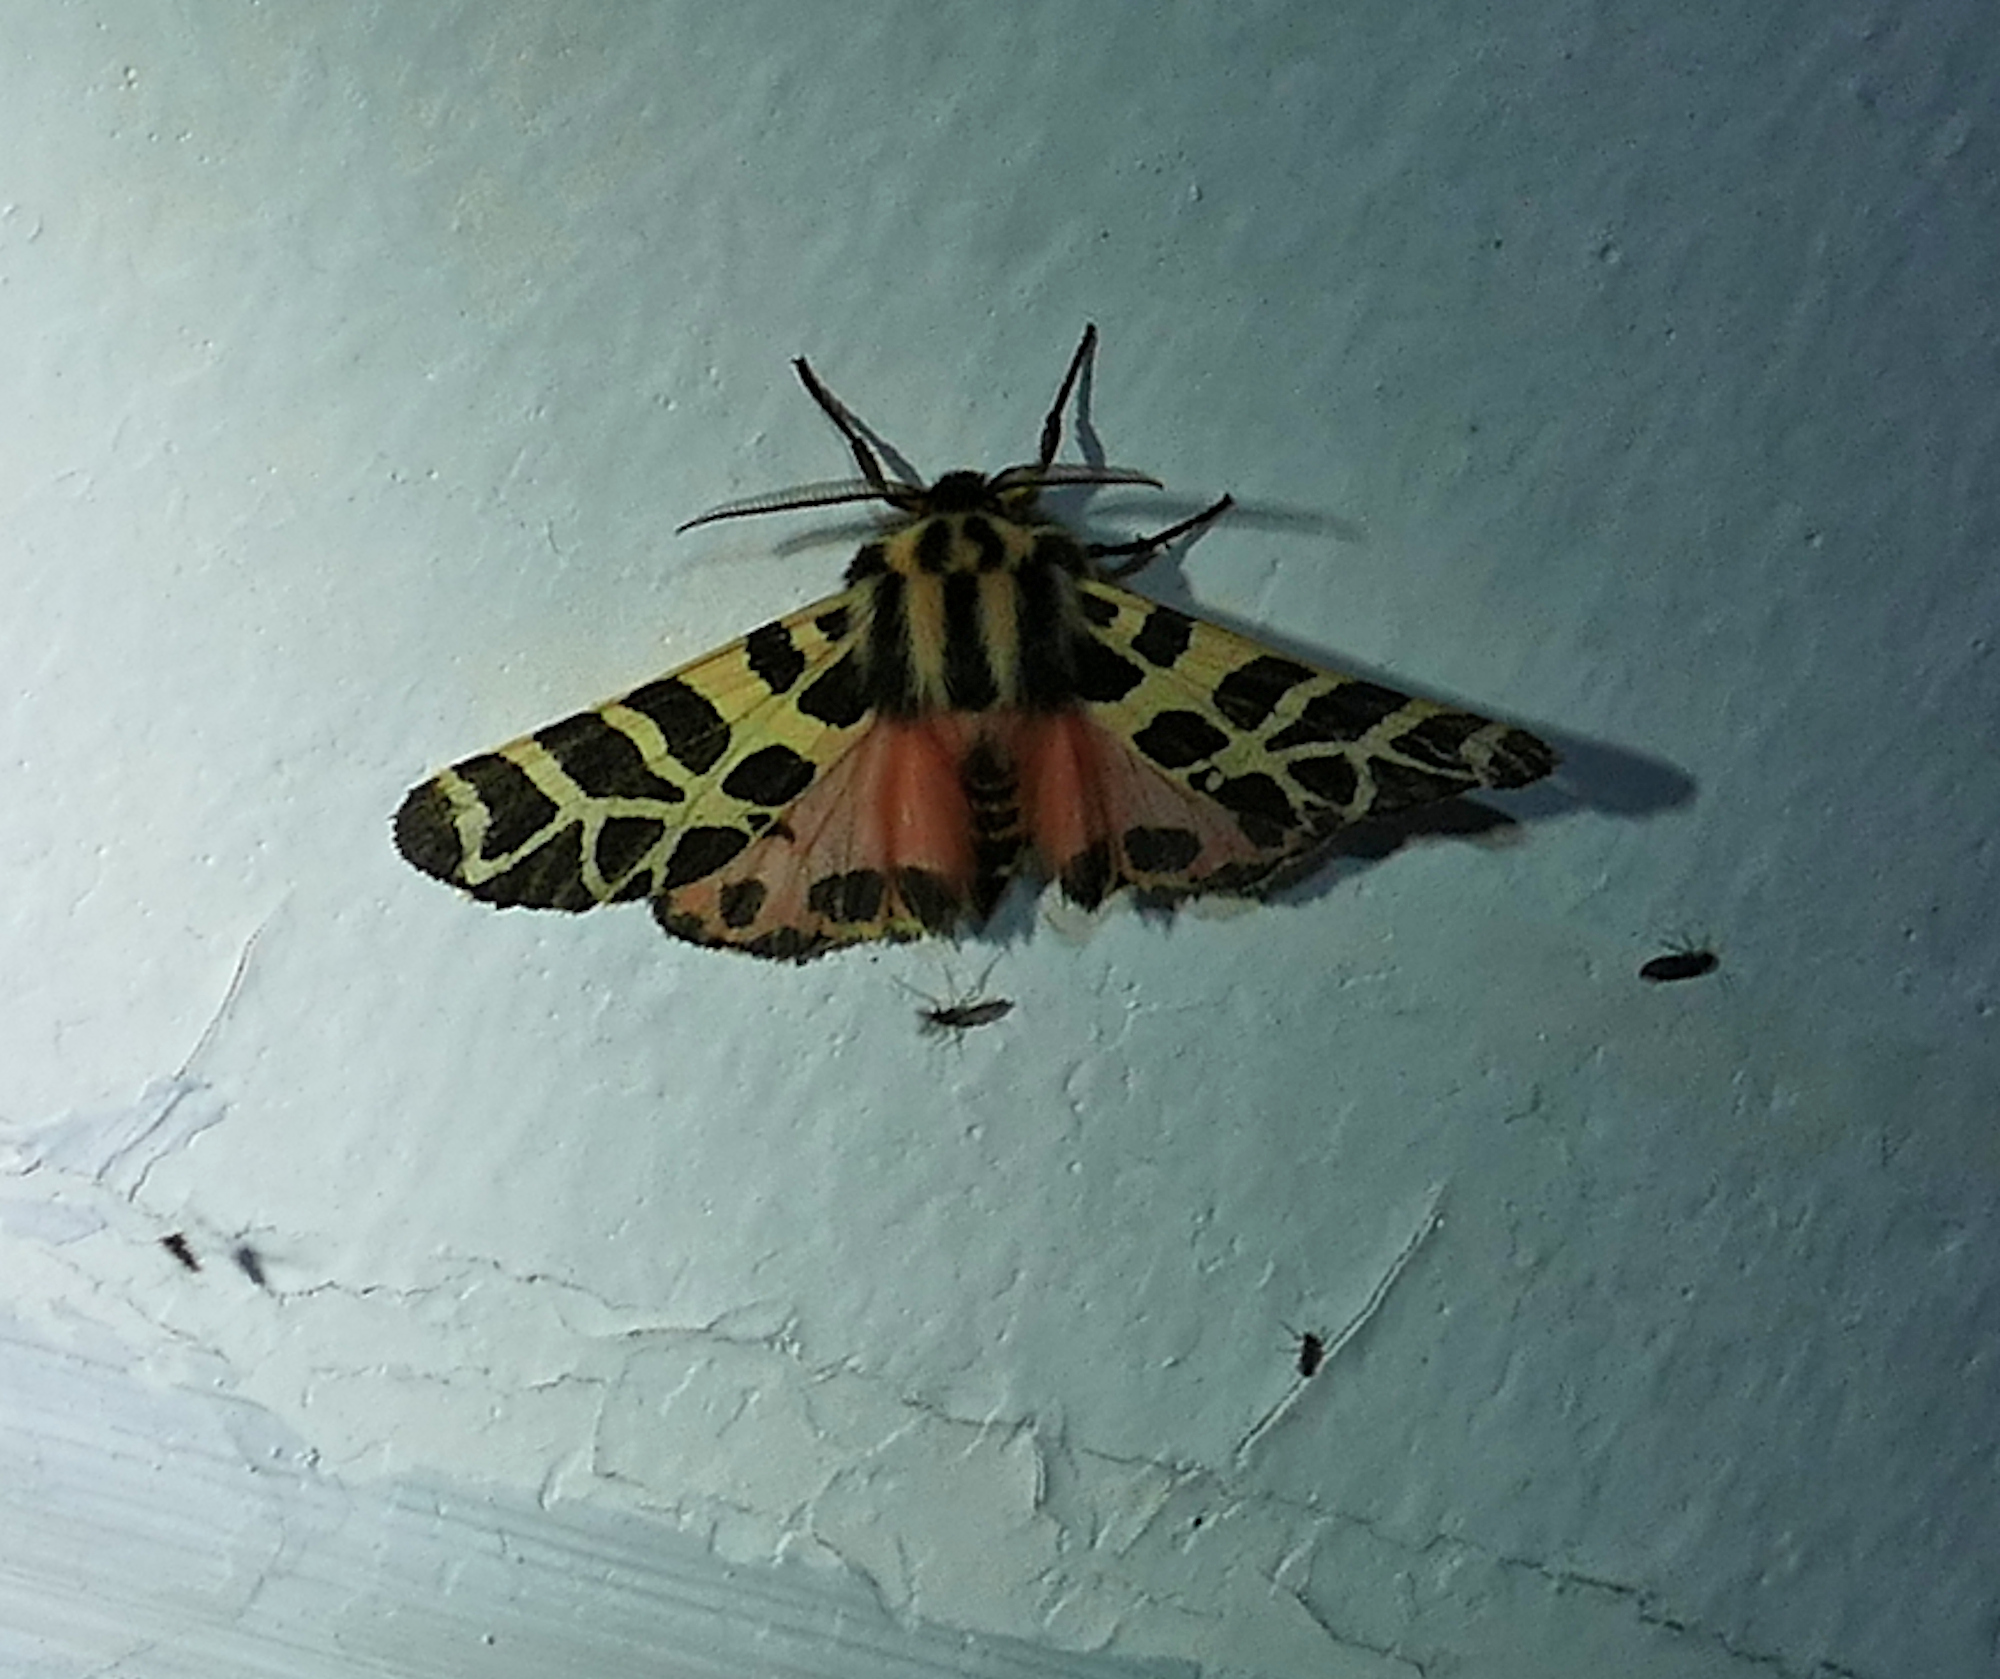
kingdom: Animalia
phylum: Arthropoda
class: Insecta
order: Lepidoptera
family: Erebidae
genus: Apantesis
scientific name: Apantesis incorrupta
